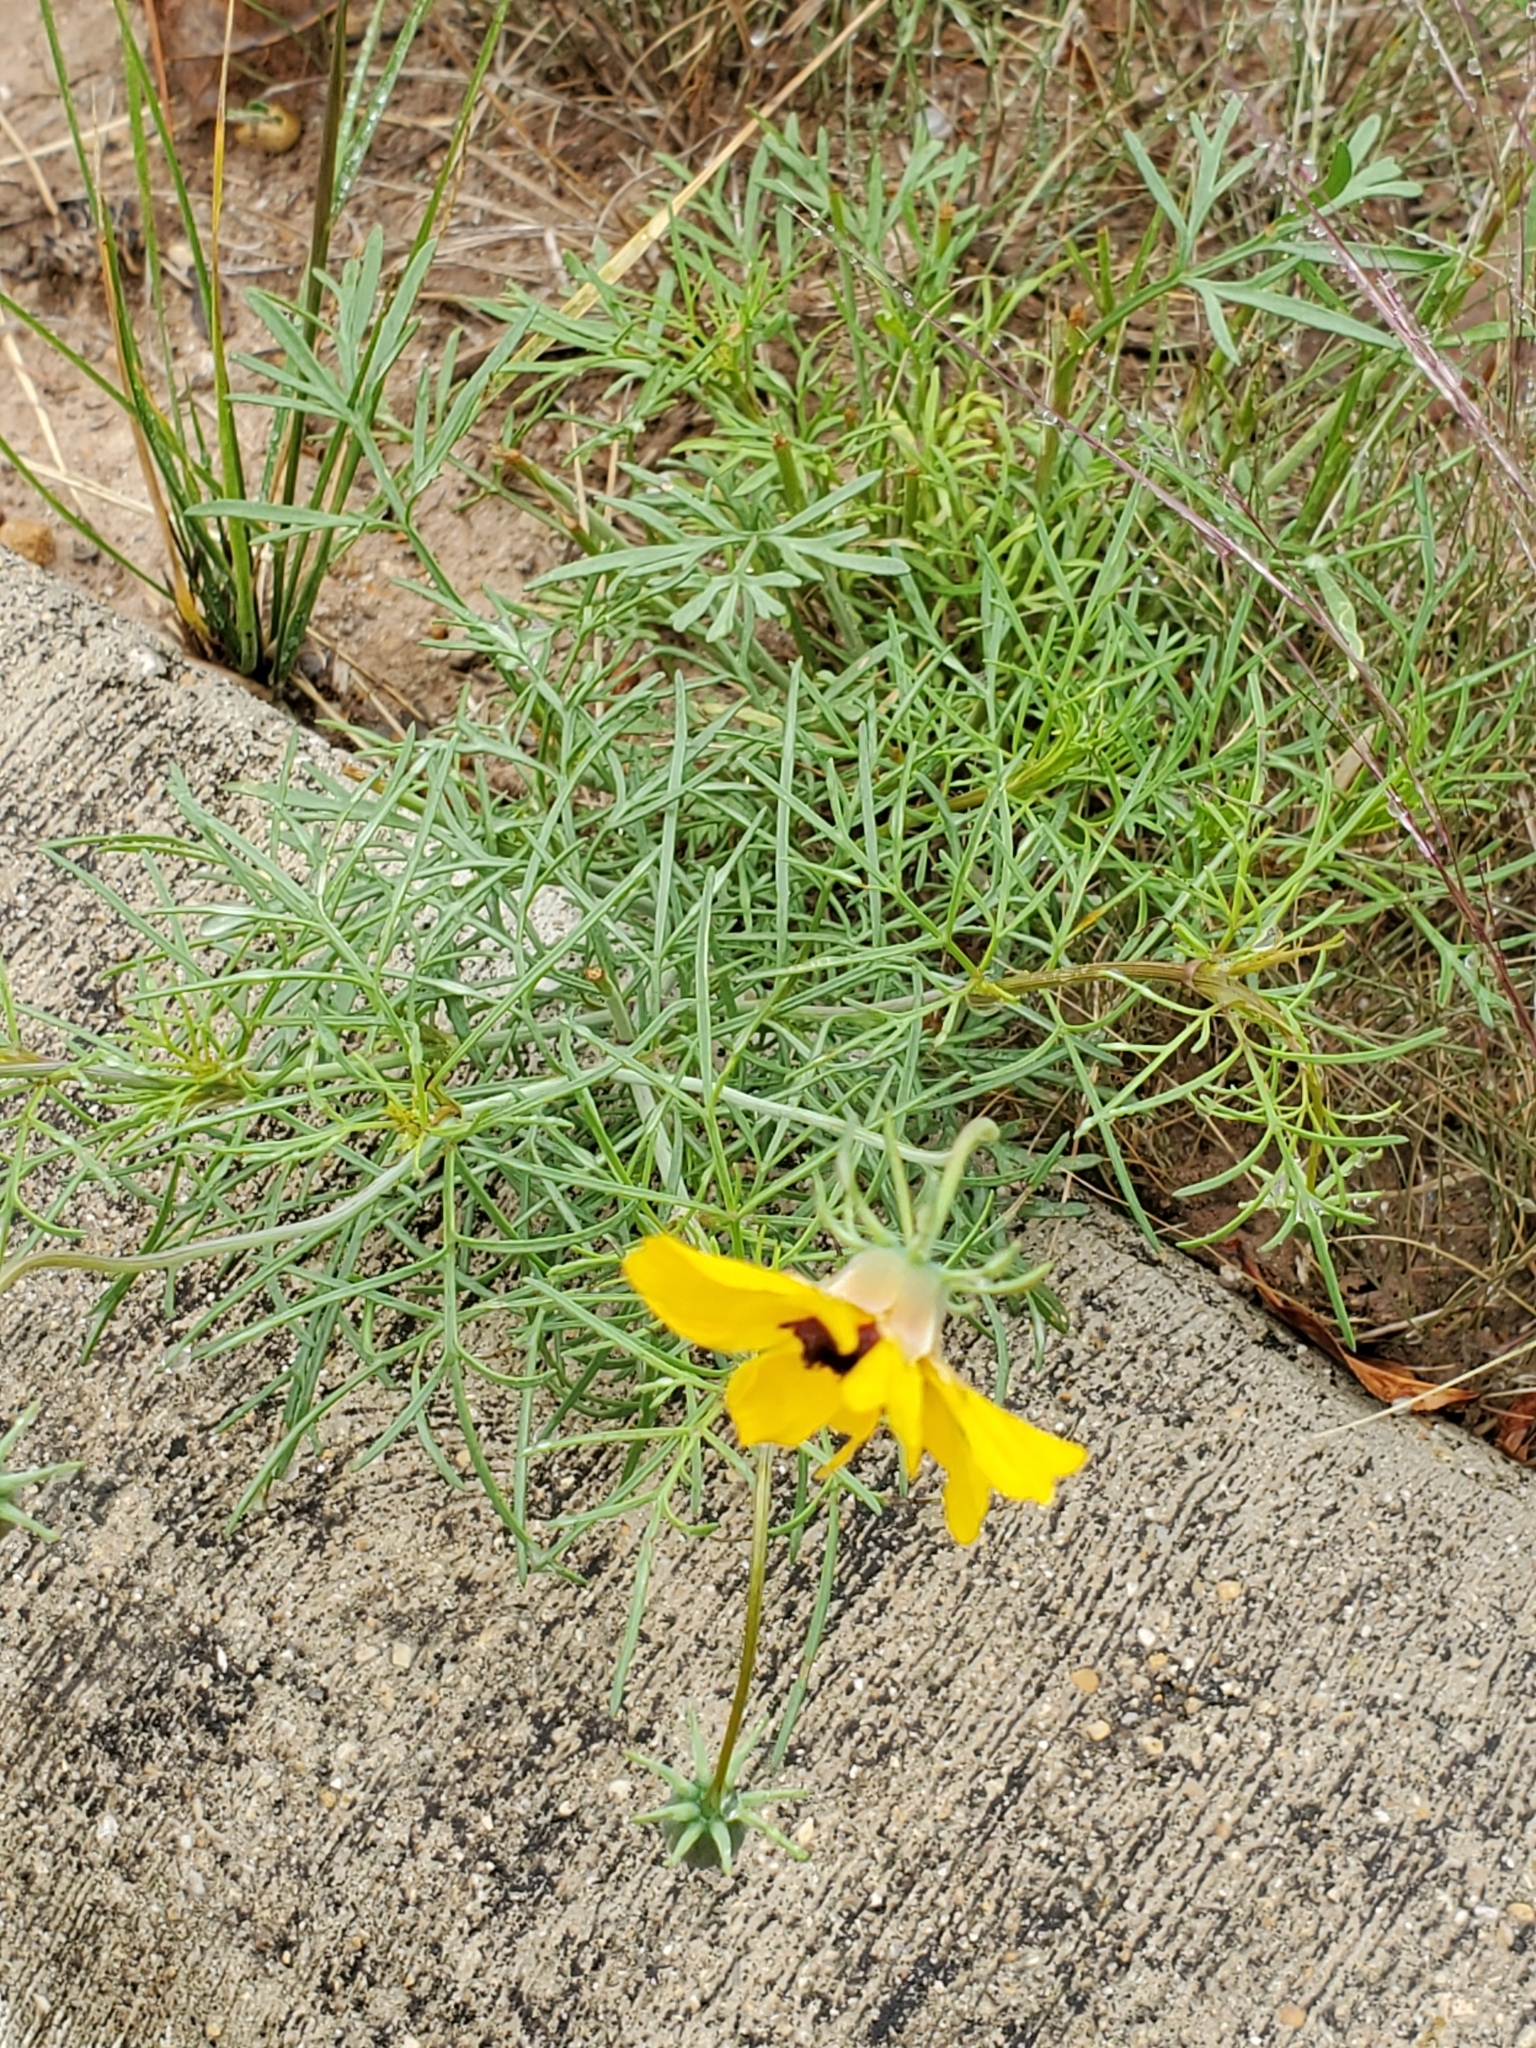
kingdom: Plantae
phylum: Tracheophyta
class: Magnoliopsida
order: Asterales
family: Asteraceae
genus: Thelesperma
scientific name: Thelesperma filifolium
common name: Stiff greenthread
